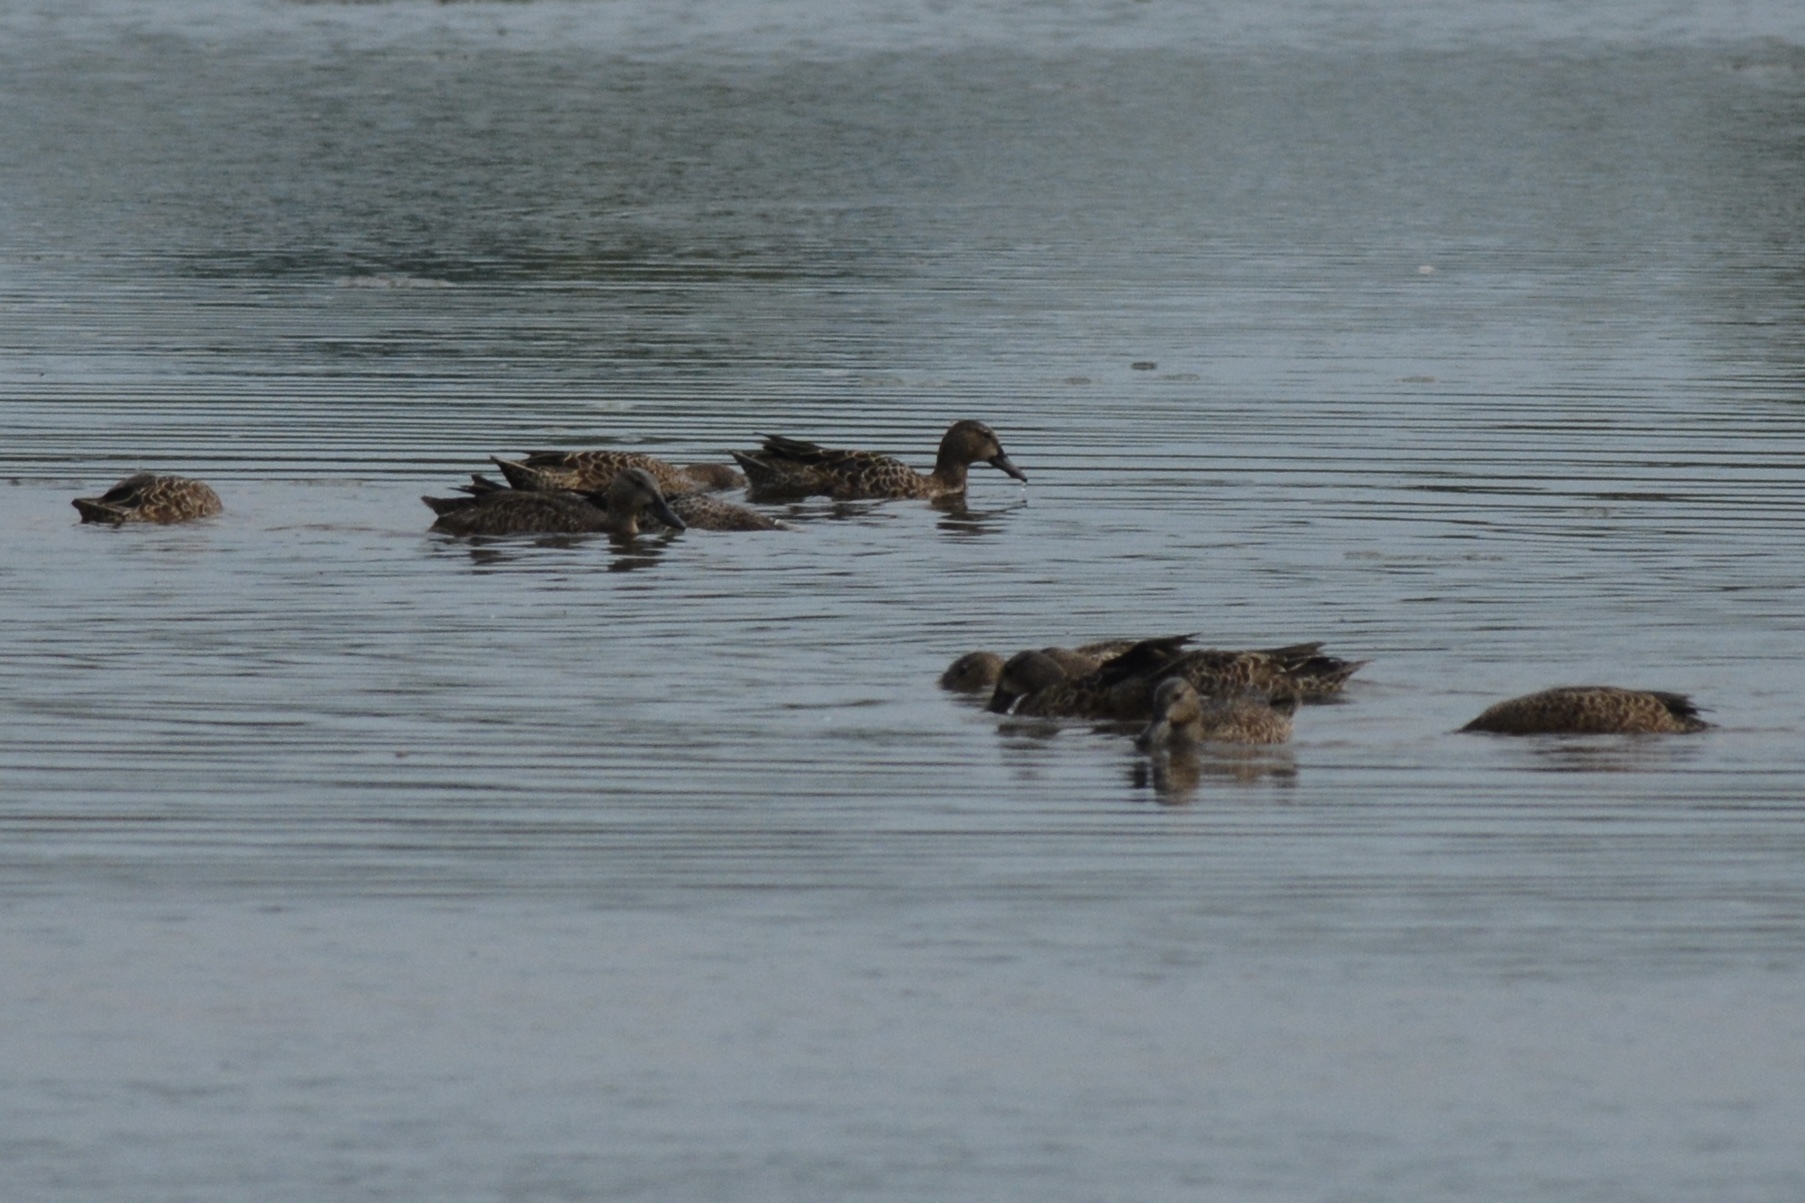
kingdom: Animalia
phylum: Chordata
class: Aves
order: Anseriformes
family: Anatidae
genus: Spatula
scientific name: Spatula discors
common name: Blue-winged teal
